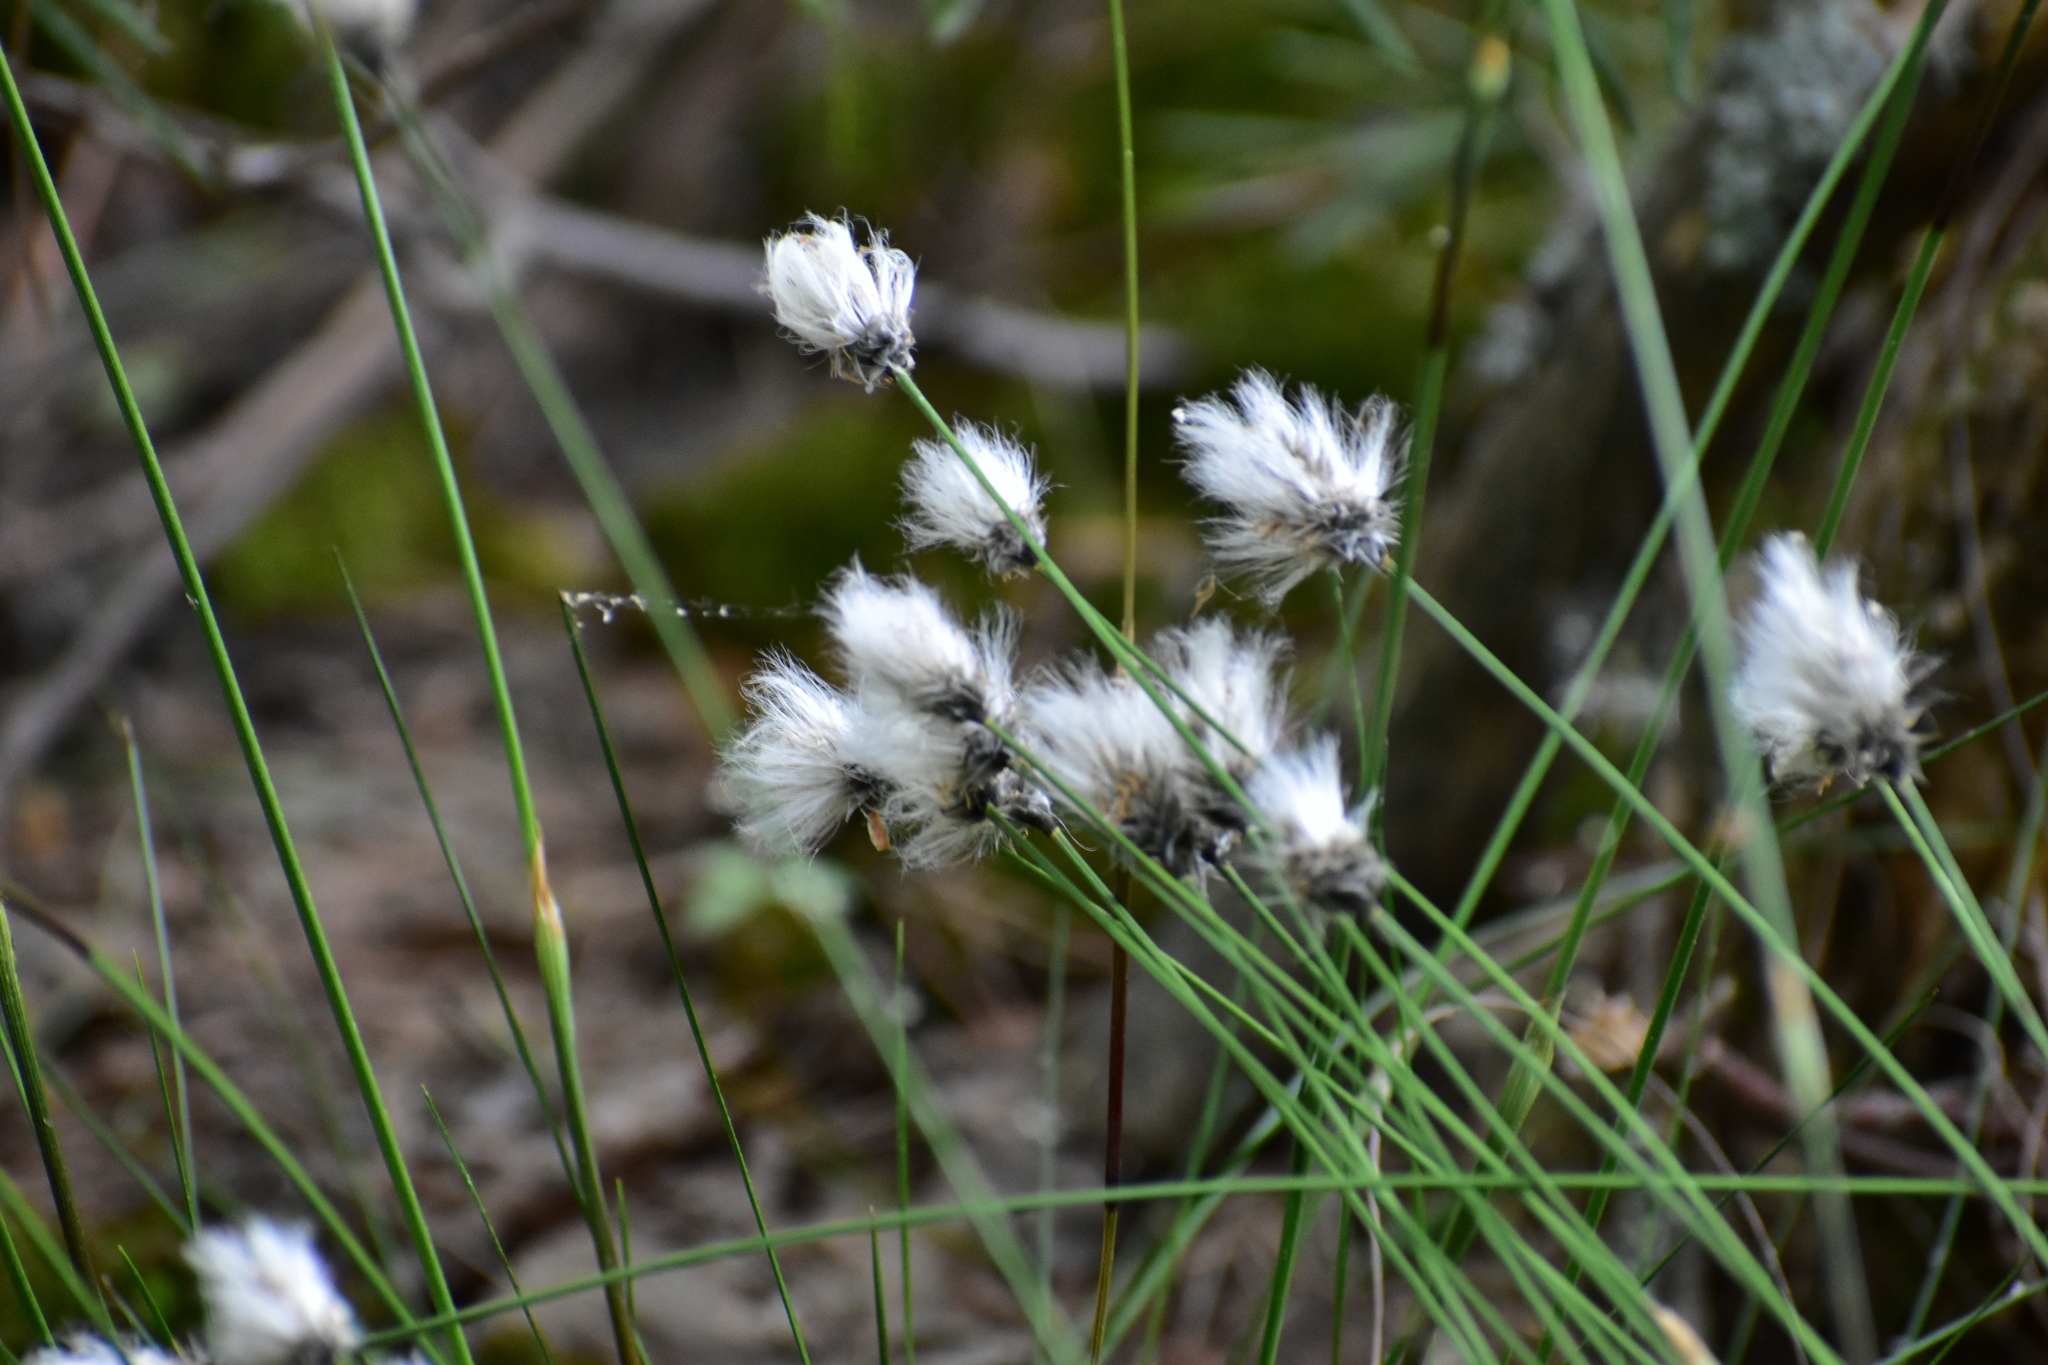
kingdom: Plantae
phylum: Tracheophyta
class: Liliopsida
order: Poales
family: Cyperaceae
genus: Eriophorum
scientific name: Eriophorum vaginatum
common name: Hare's-tail cottongrass
